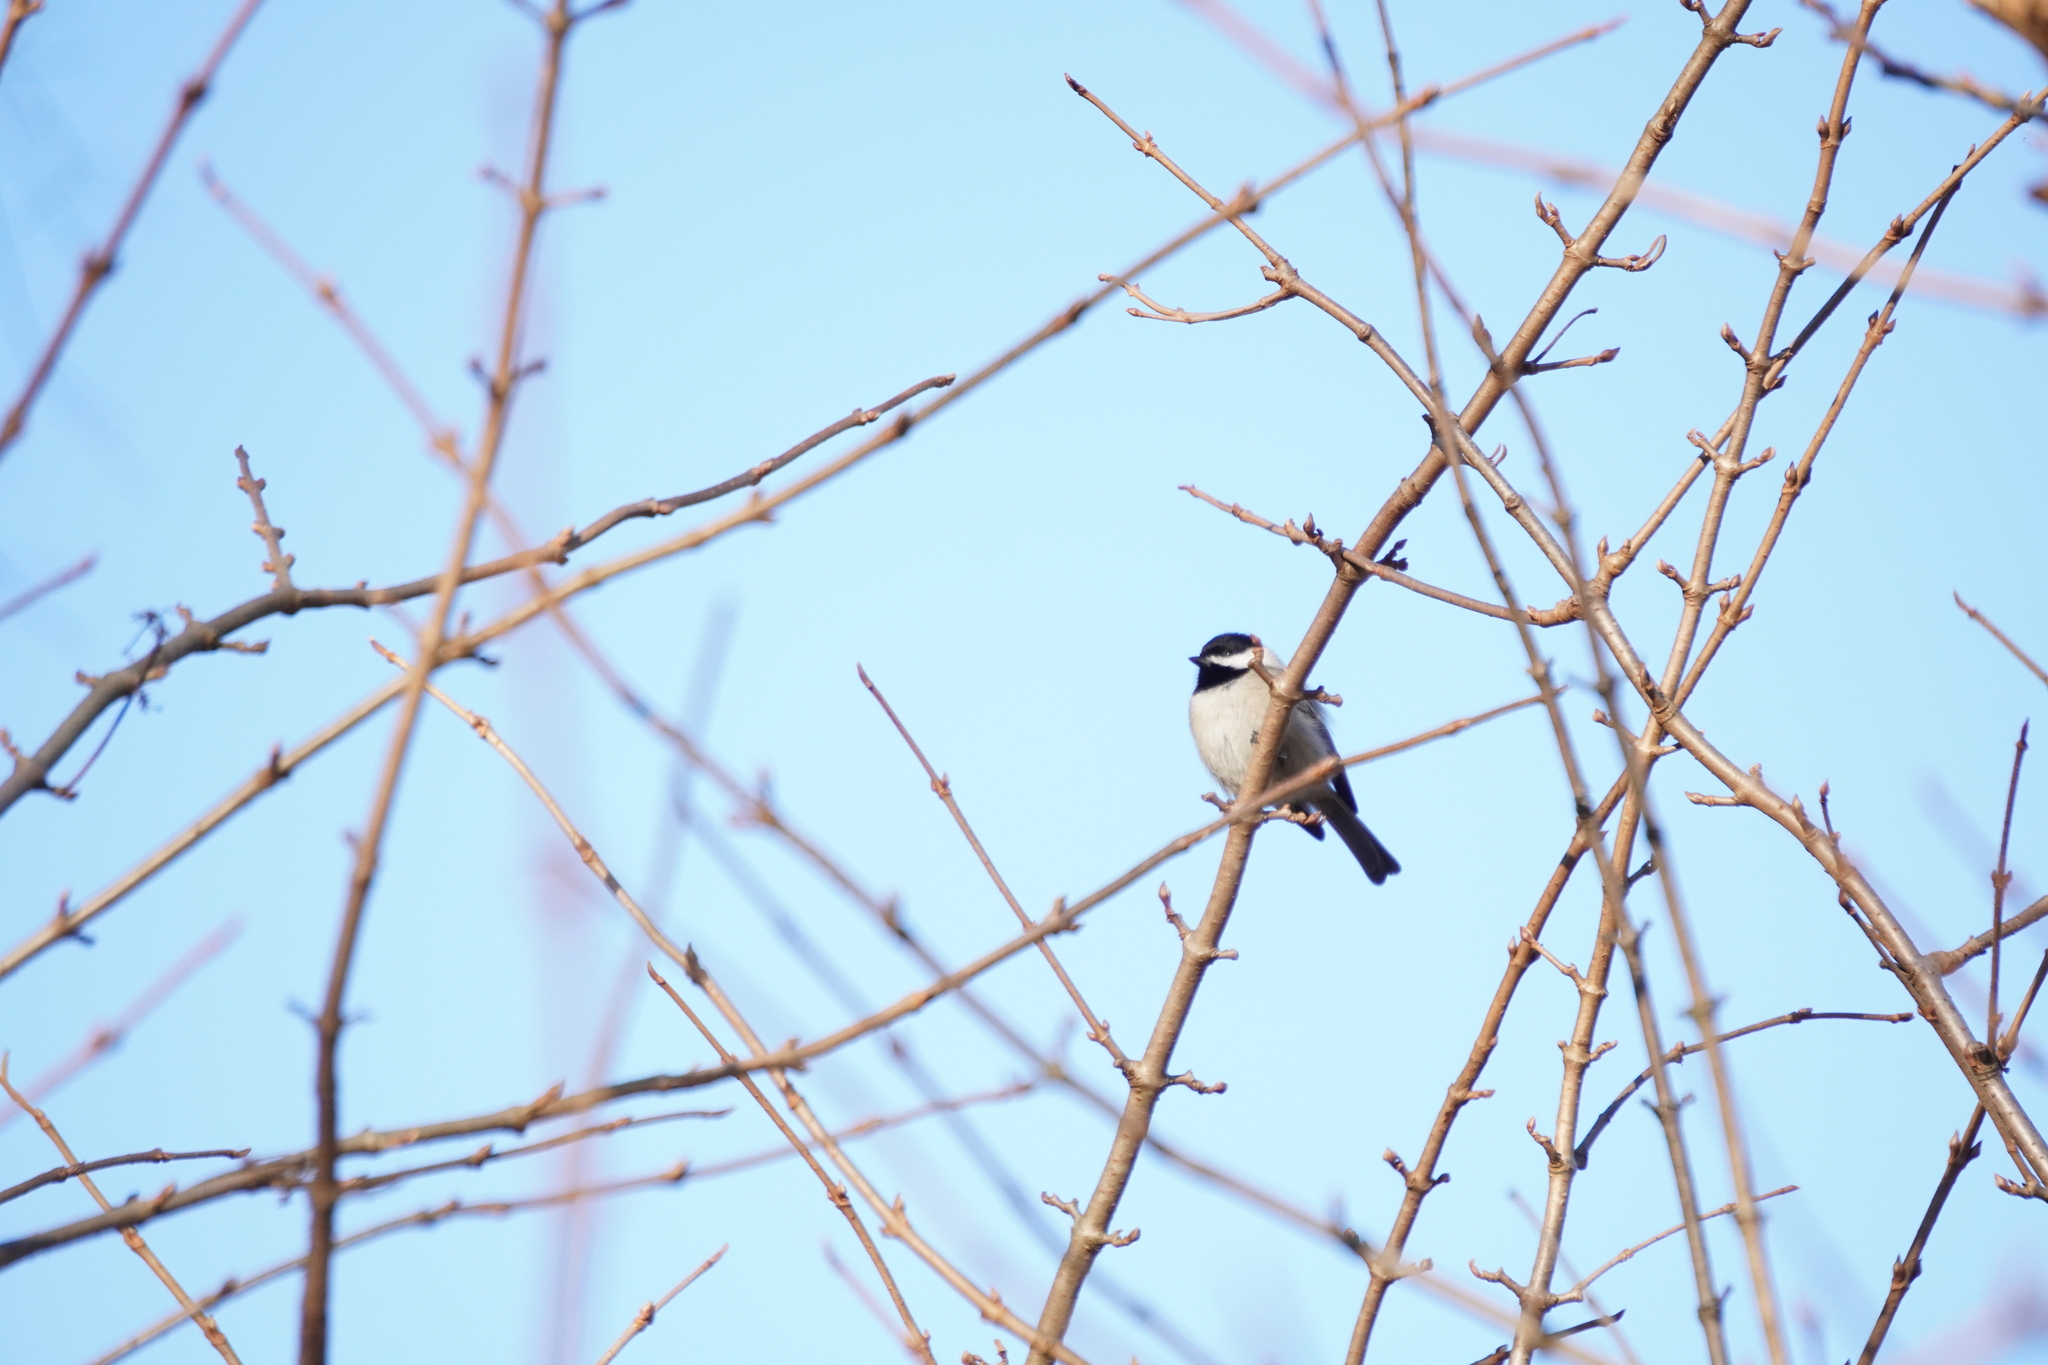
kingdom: Animalia
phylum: Chordata
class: Aves
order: Passeriformes
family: Paridae
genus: Poecile
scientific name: Poecile
